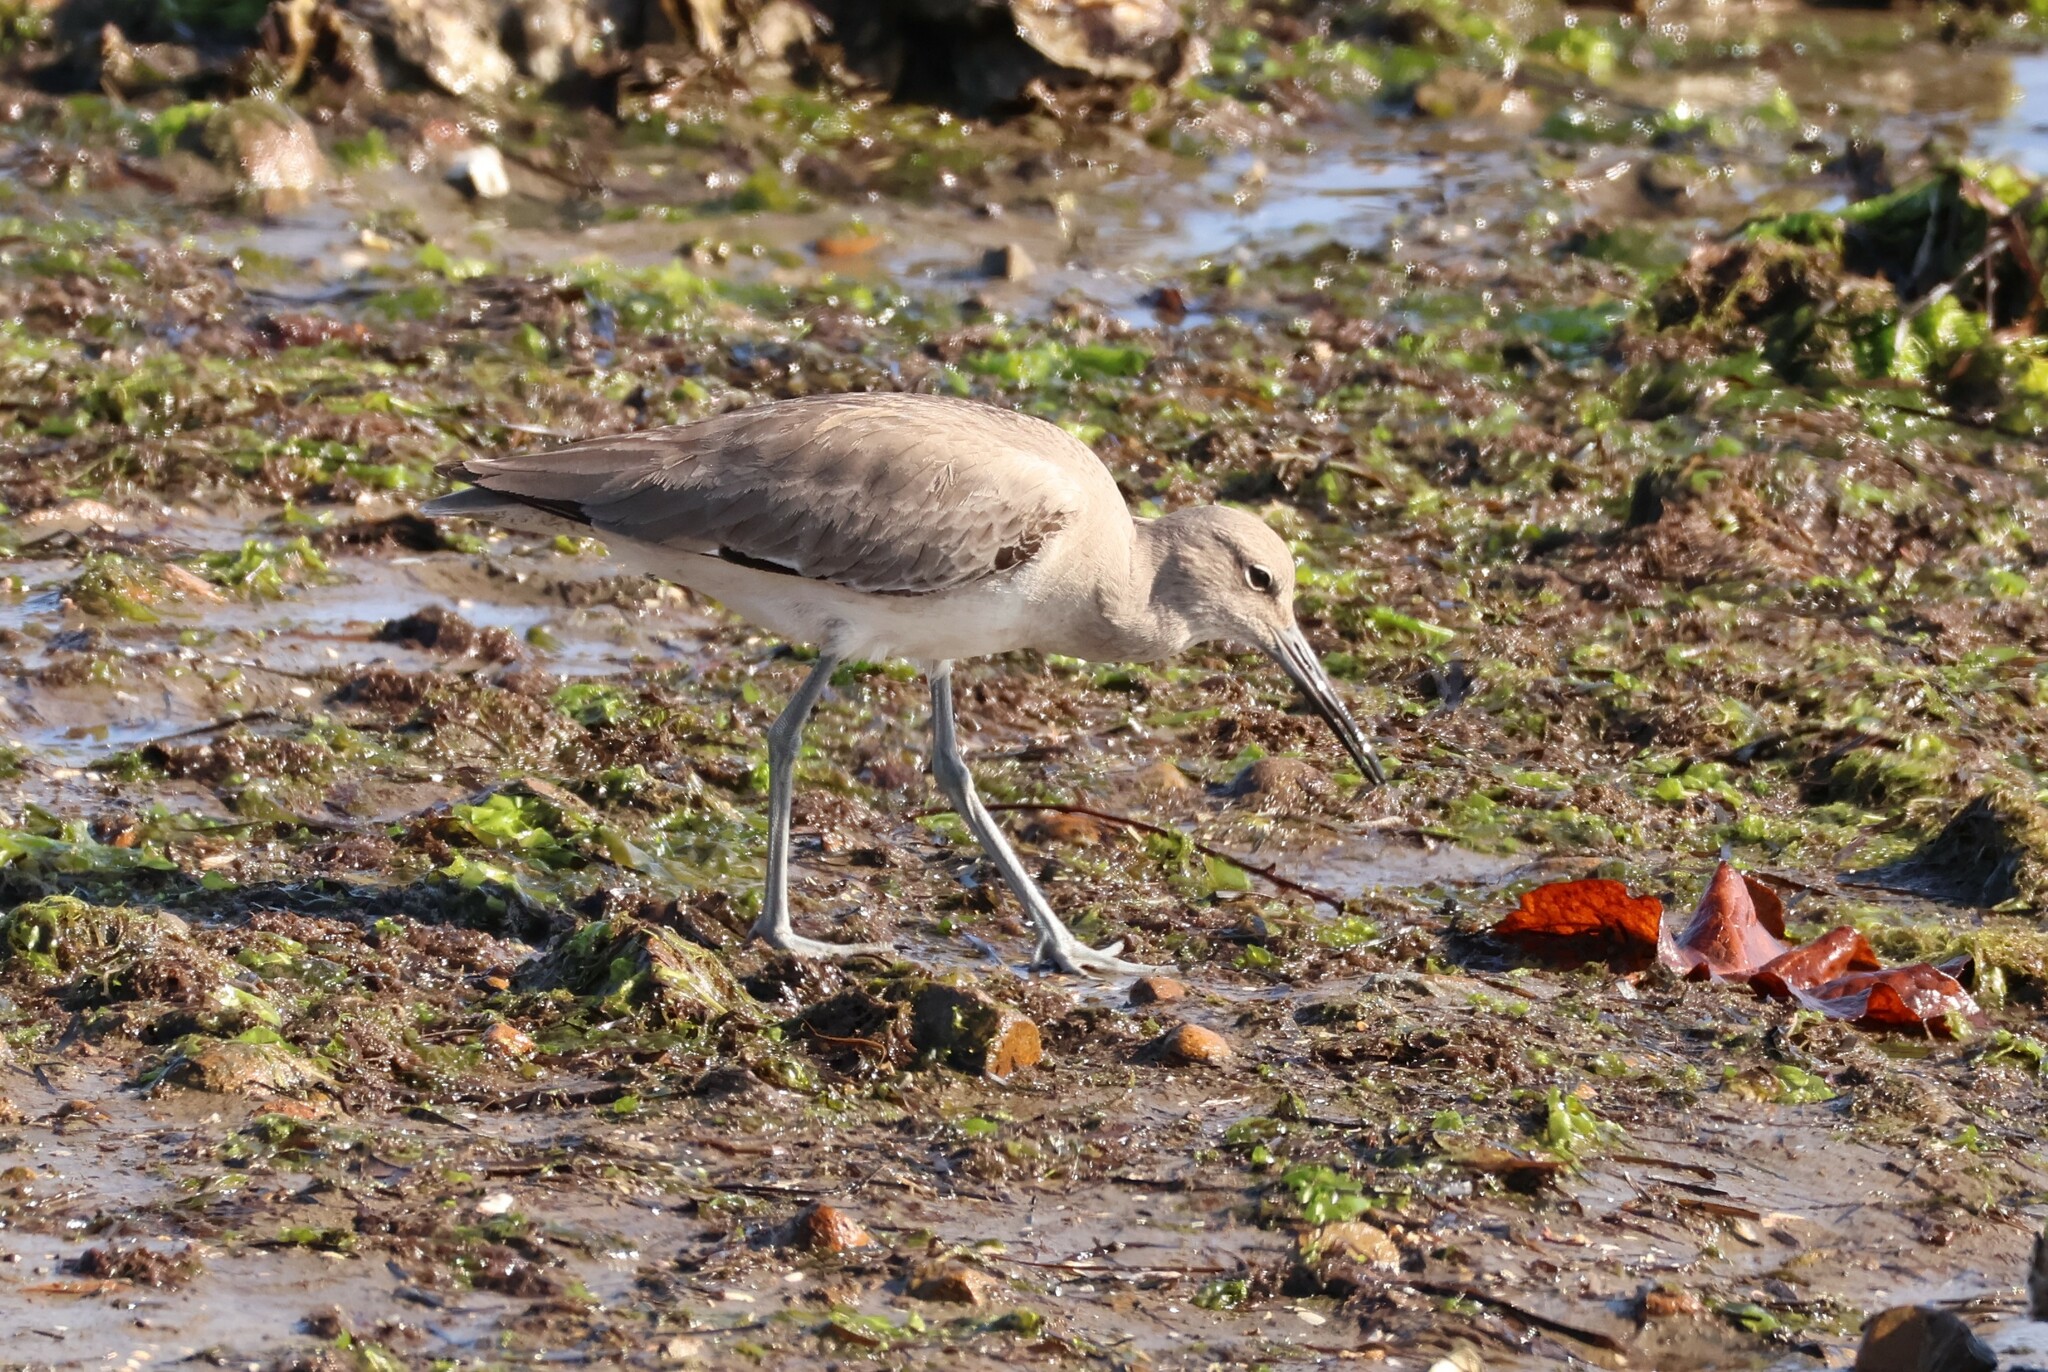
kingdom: Animalia
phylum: Chordata
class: Aves
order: Charadriiformes
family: Scolopacidae
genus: Tringa
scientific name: Tringa semipalmata
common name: Willet
